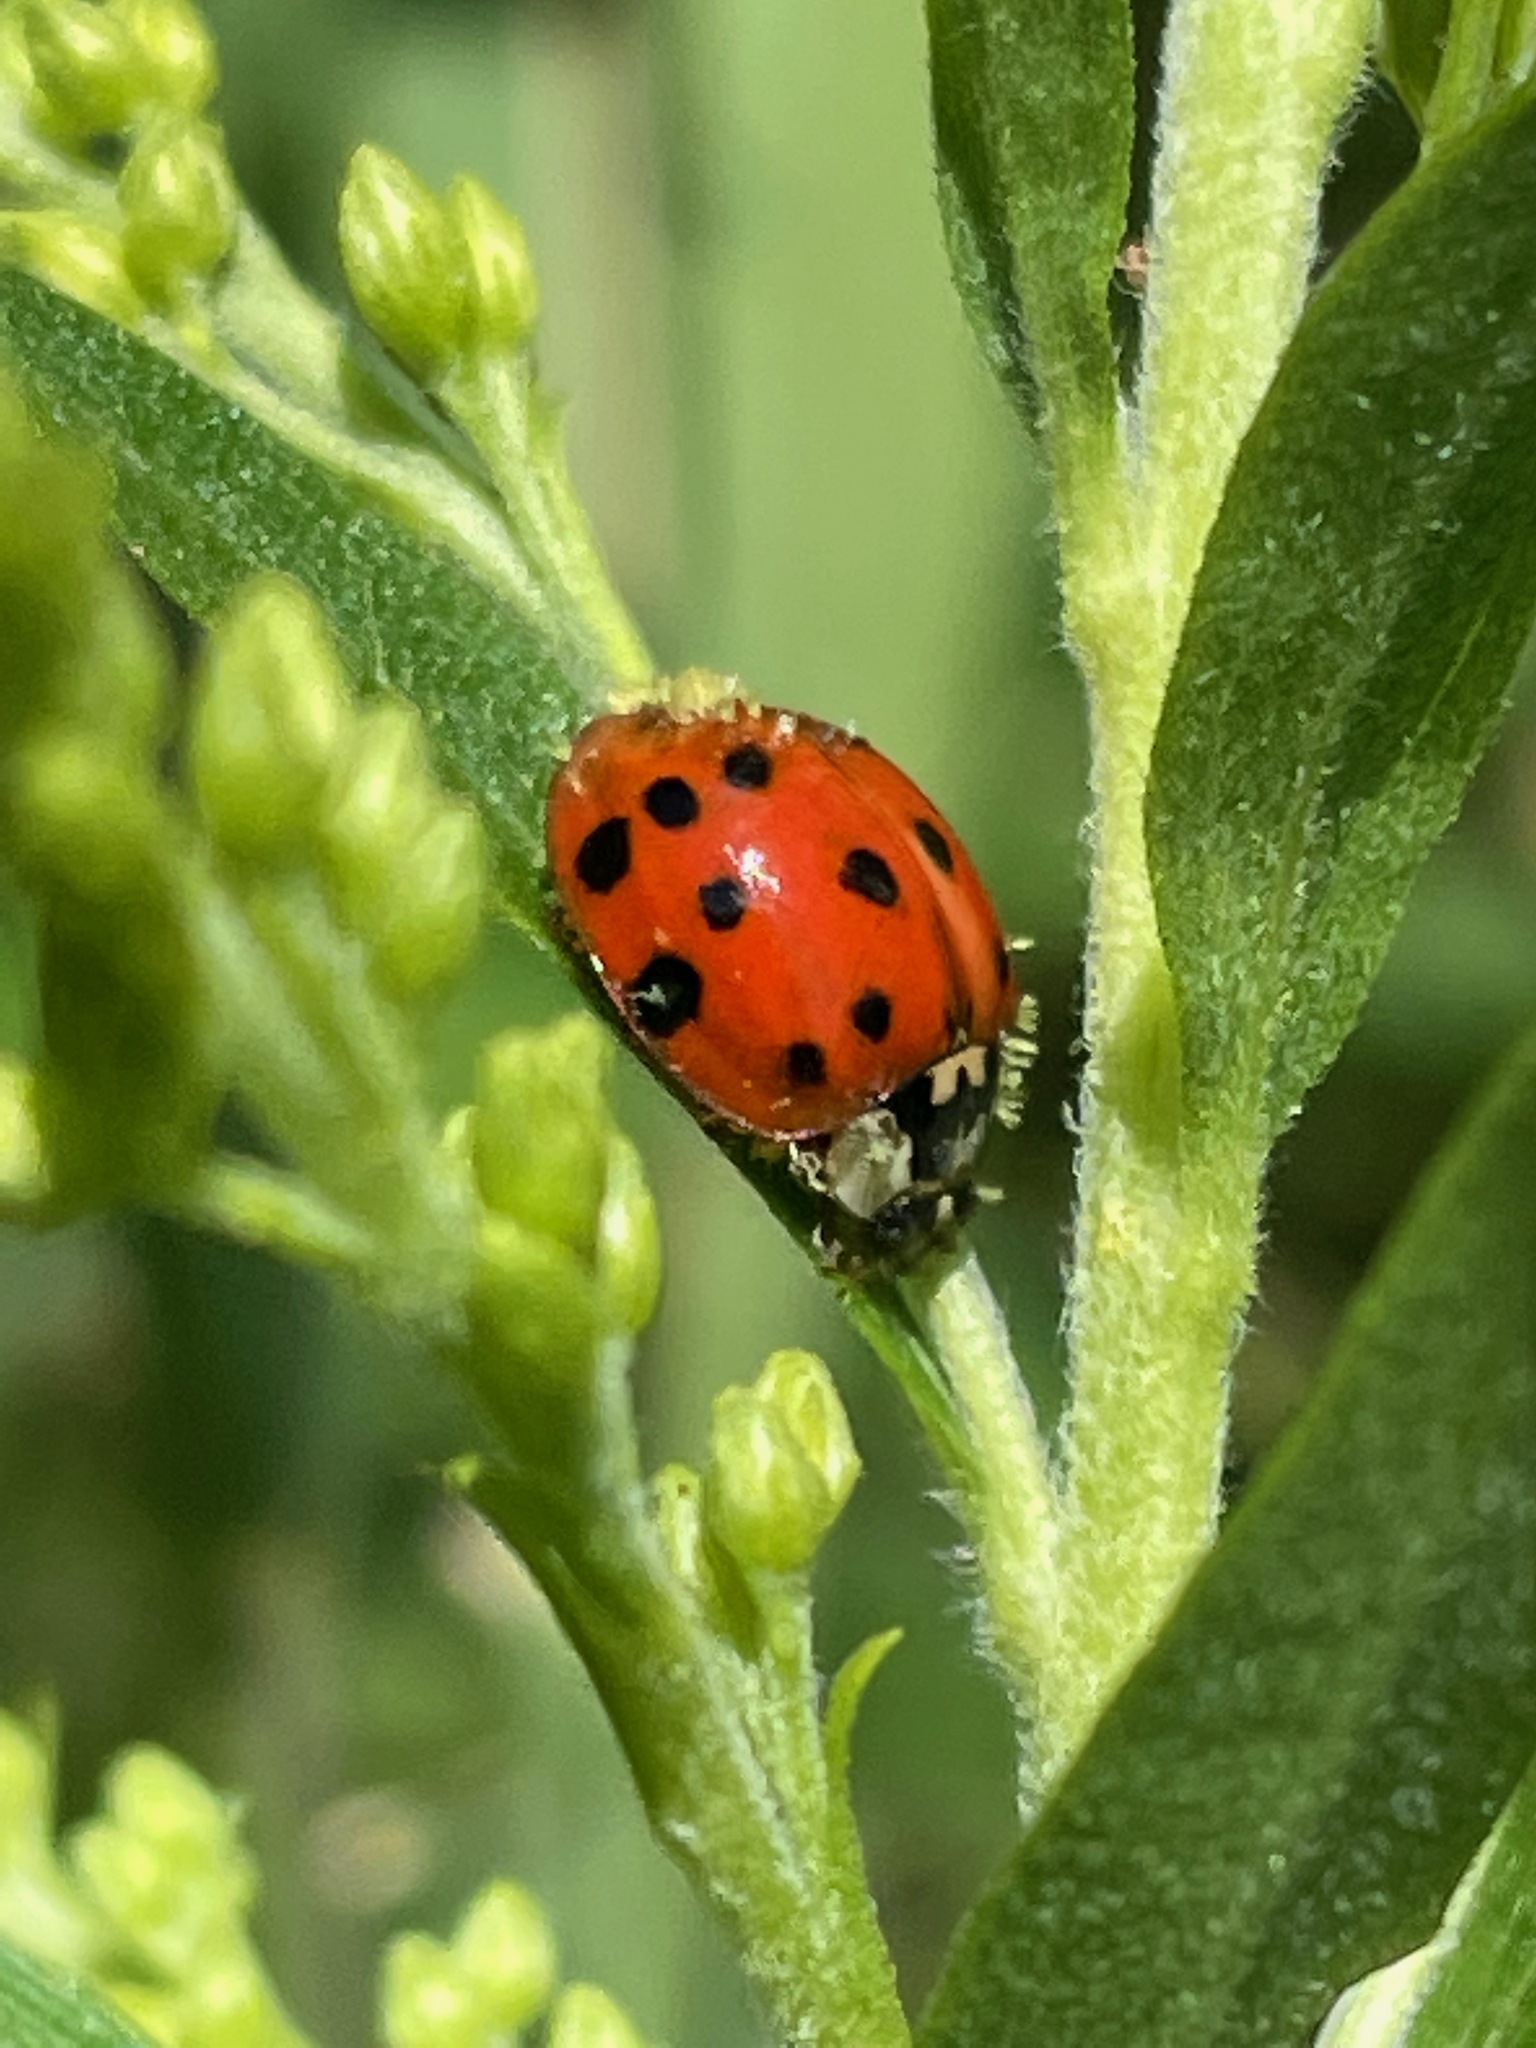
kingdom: Animalia
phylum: Arthropoda
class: Insecta
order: Coleoptera
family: Coccinellidae
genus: Harmonia
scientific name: Harmonia axyridis
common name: Harlequin ladybird
